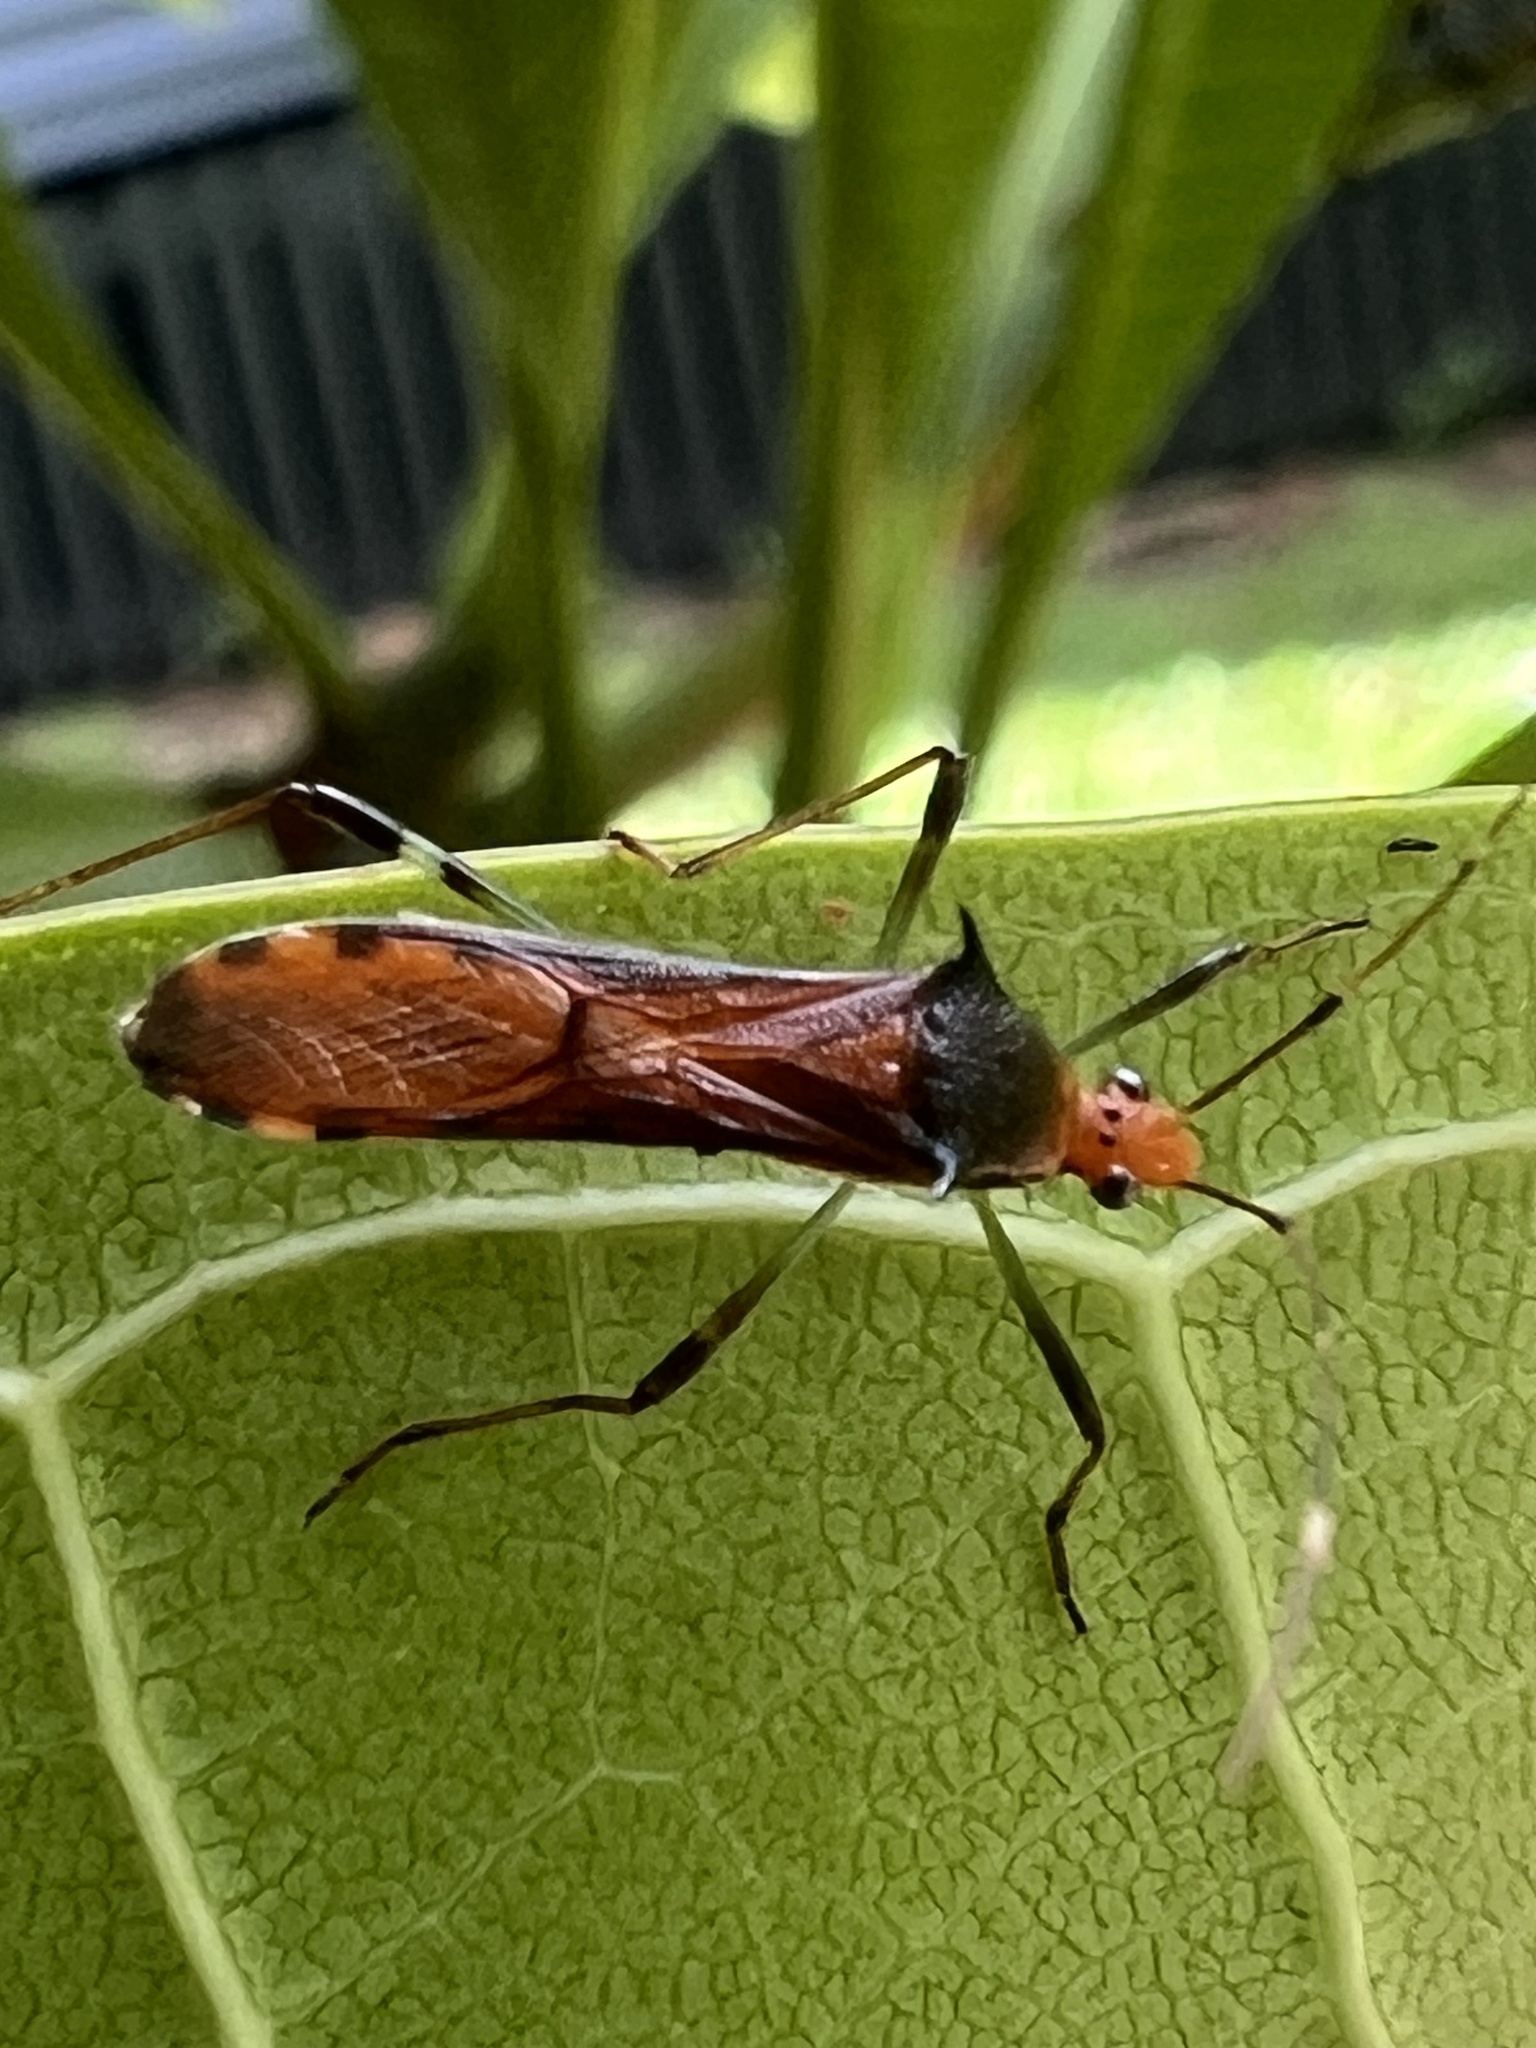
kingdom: Animalia
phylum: Arthropoda
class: Insecta
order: Hemiptera
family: Alydidae
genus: Noliphus
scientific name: Noliphus erythrocephalus
